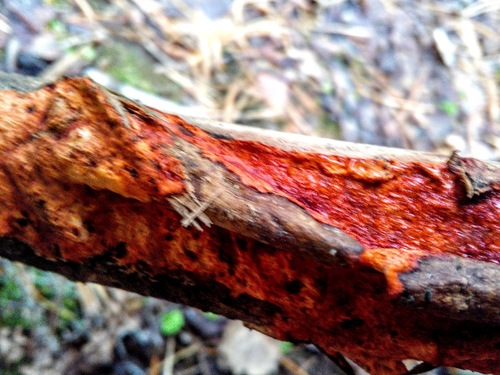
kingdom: Fungi
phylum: Basidiomycota
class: Agaricomycetes
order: Polyporales
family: Phanerochaetaceae
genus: Atheliachaete
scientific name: Atheliachaete sanguinea
